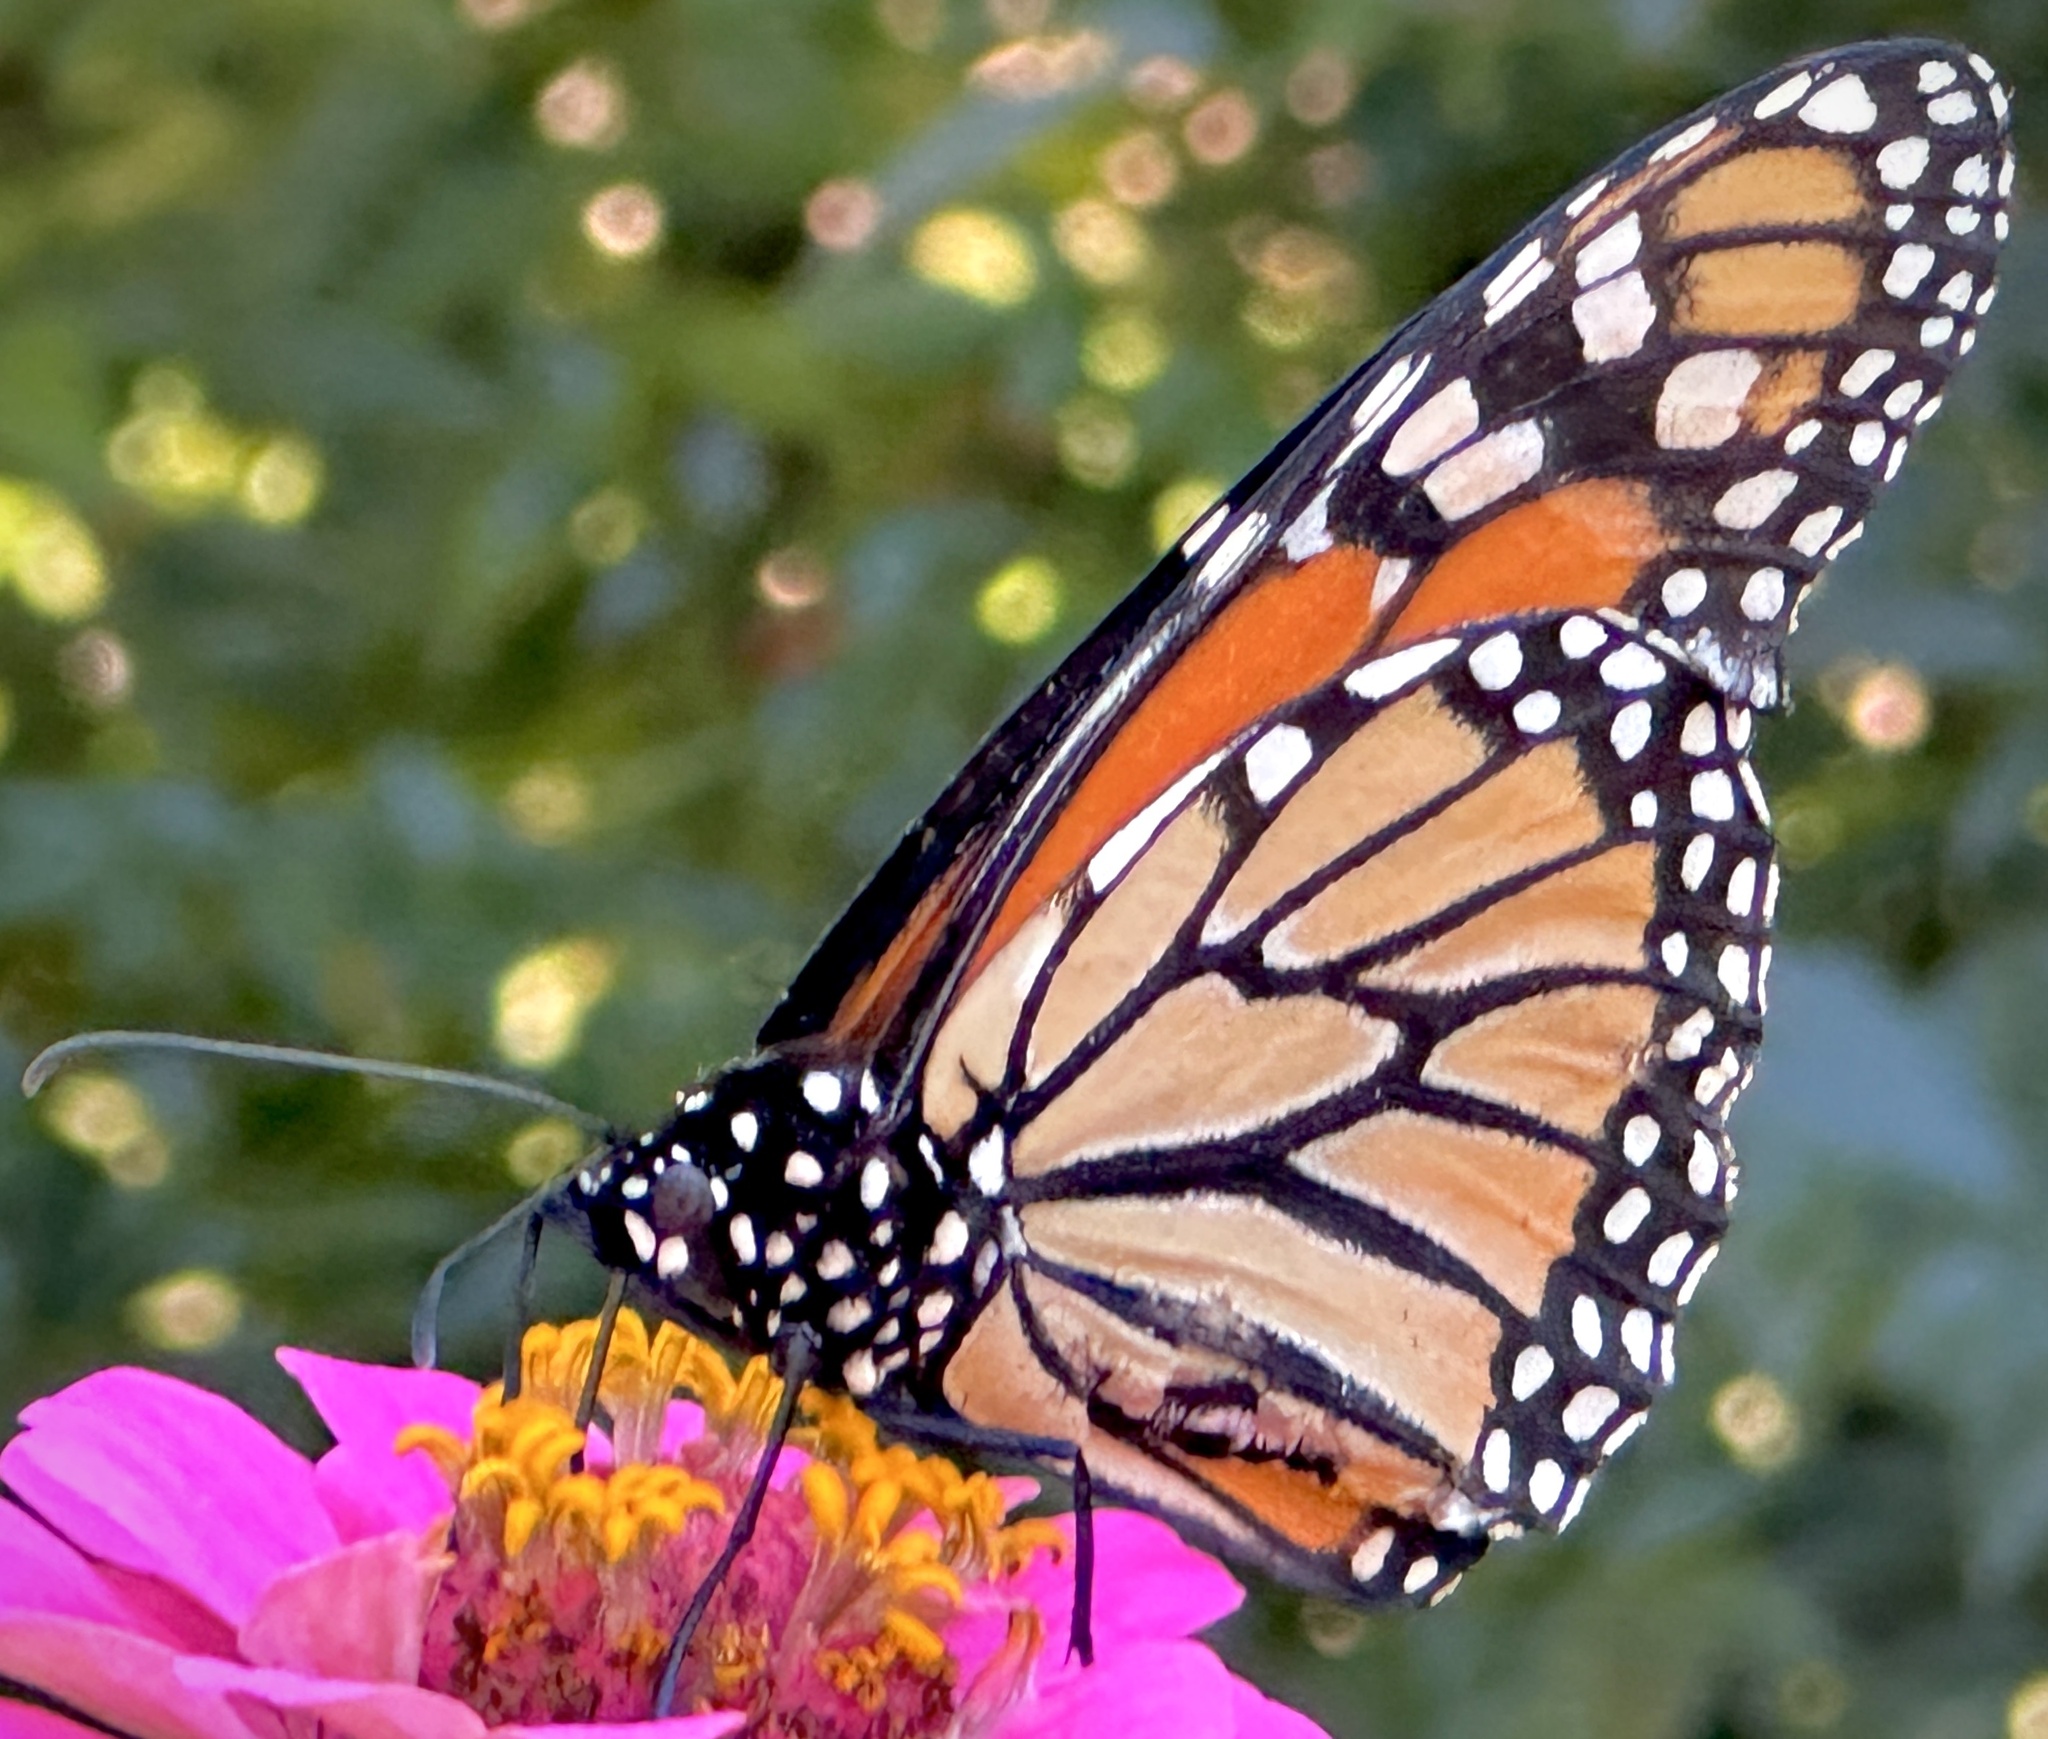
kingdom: Animalia
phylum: Arthropoda
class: Insecta
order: Lepidoptera
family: Nymphalidae
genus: Danaus
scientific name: Danaus plexippus
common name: Monarch
